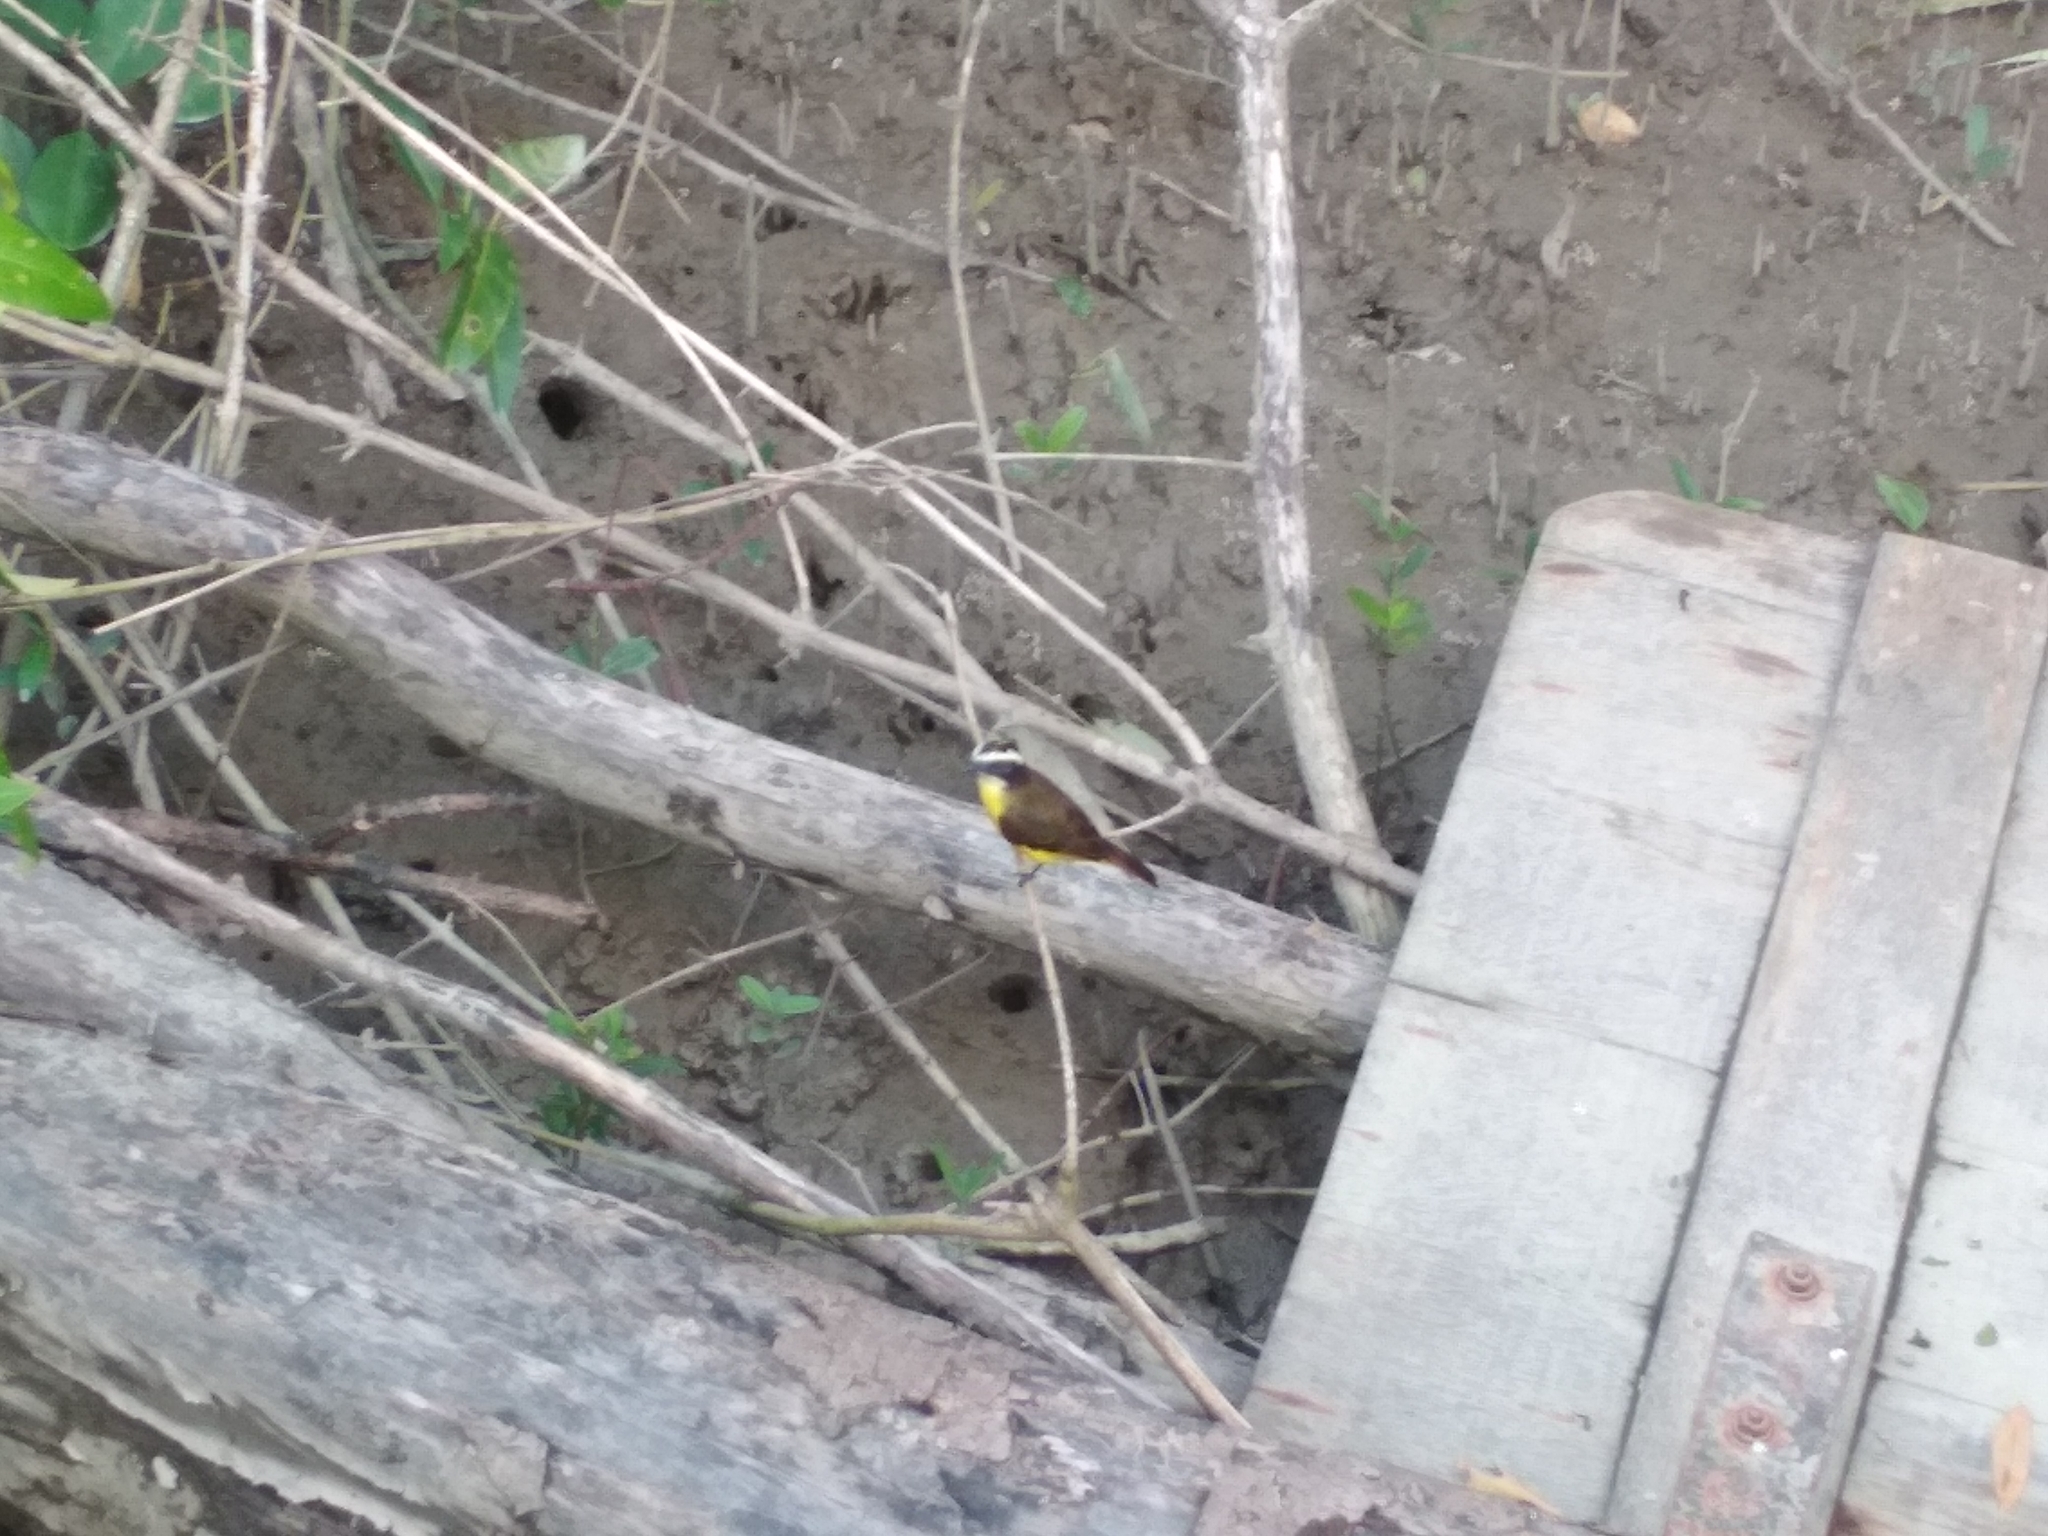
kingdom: Animalia
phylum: Chordata
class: Aves
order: Passeriformes
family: Tyrannidae
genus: Myiozetetes
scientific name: Myiozetetes cayanensis
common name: Rusty-margined flycatcher
